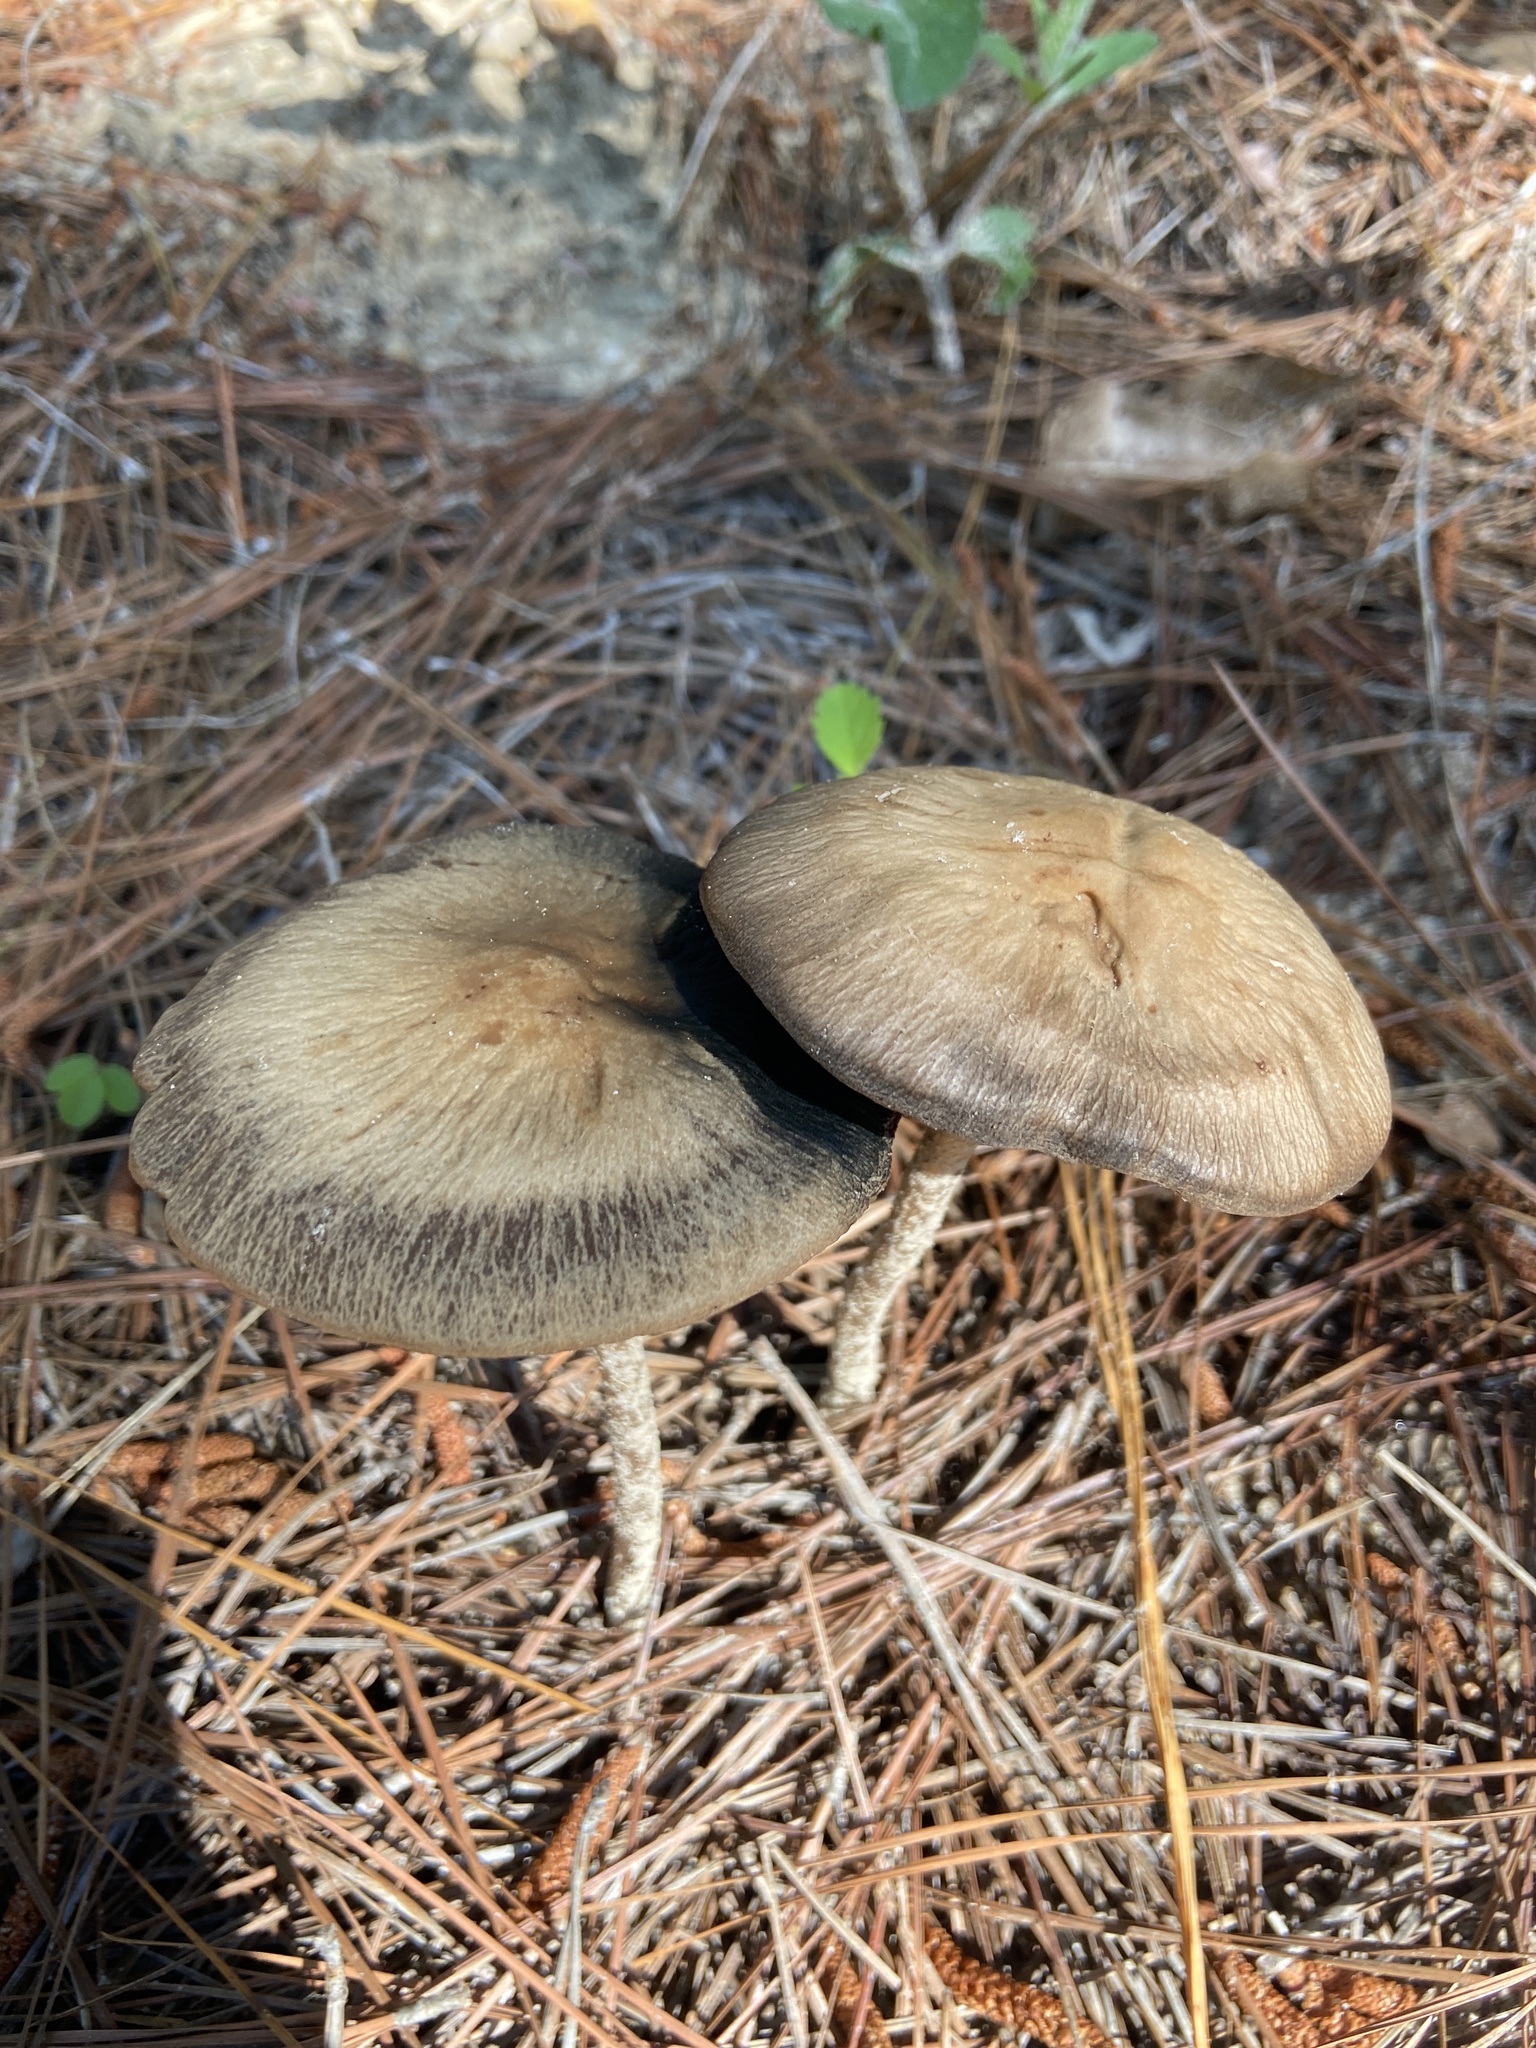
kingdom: Fungi
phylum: Basidiomycota
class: Agaricomycetes
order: Agaricales
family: Bolbitiaceae
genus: Panaeolus
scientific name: Panaeolus cinctulus
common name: Banded mottlegill
